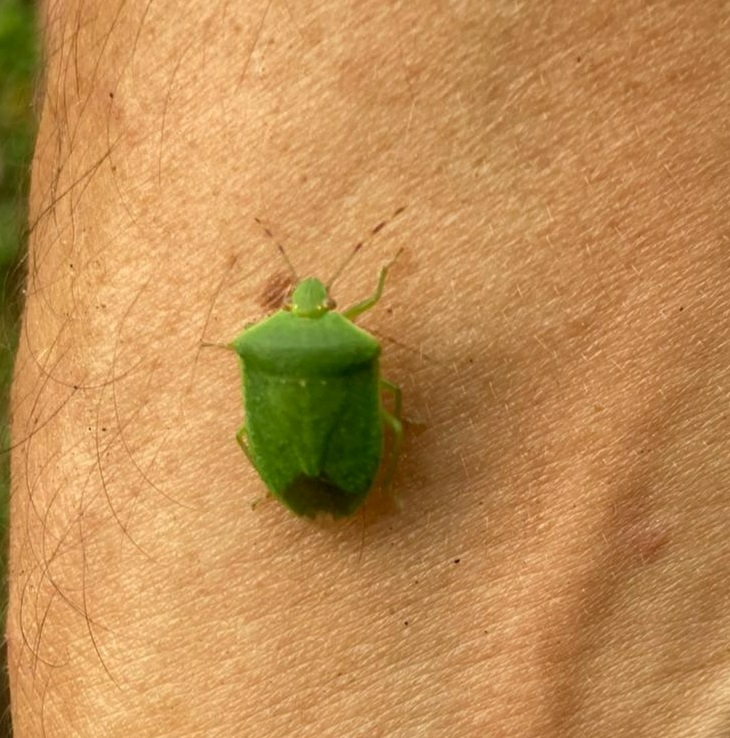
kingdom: Animalia
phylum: Arthropoda
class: Insecta
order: Hemiptera
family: Pentatomidae
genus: Nezara
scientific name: Nezara viridula
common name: Southern green stink bug
